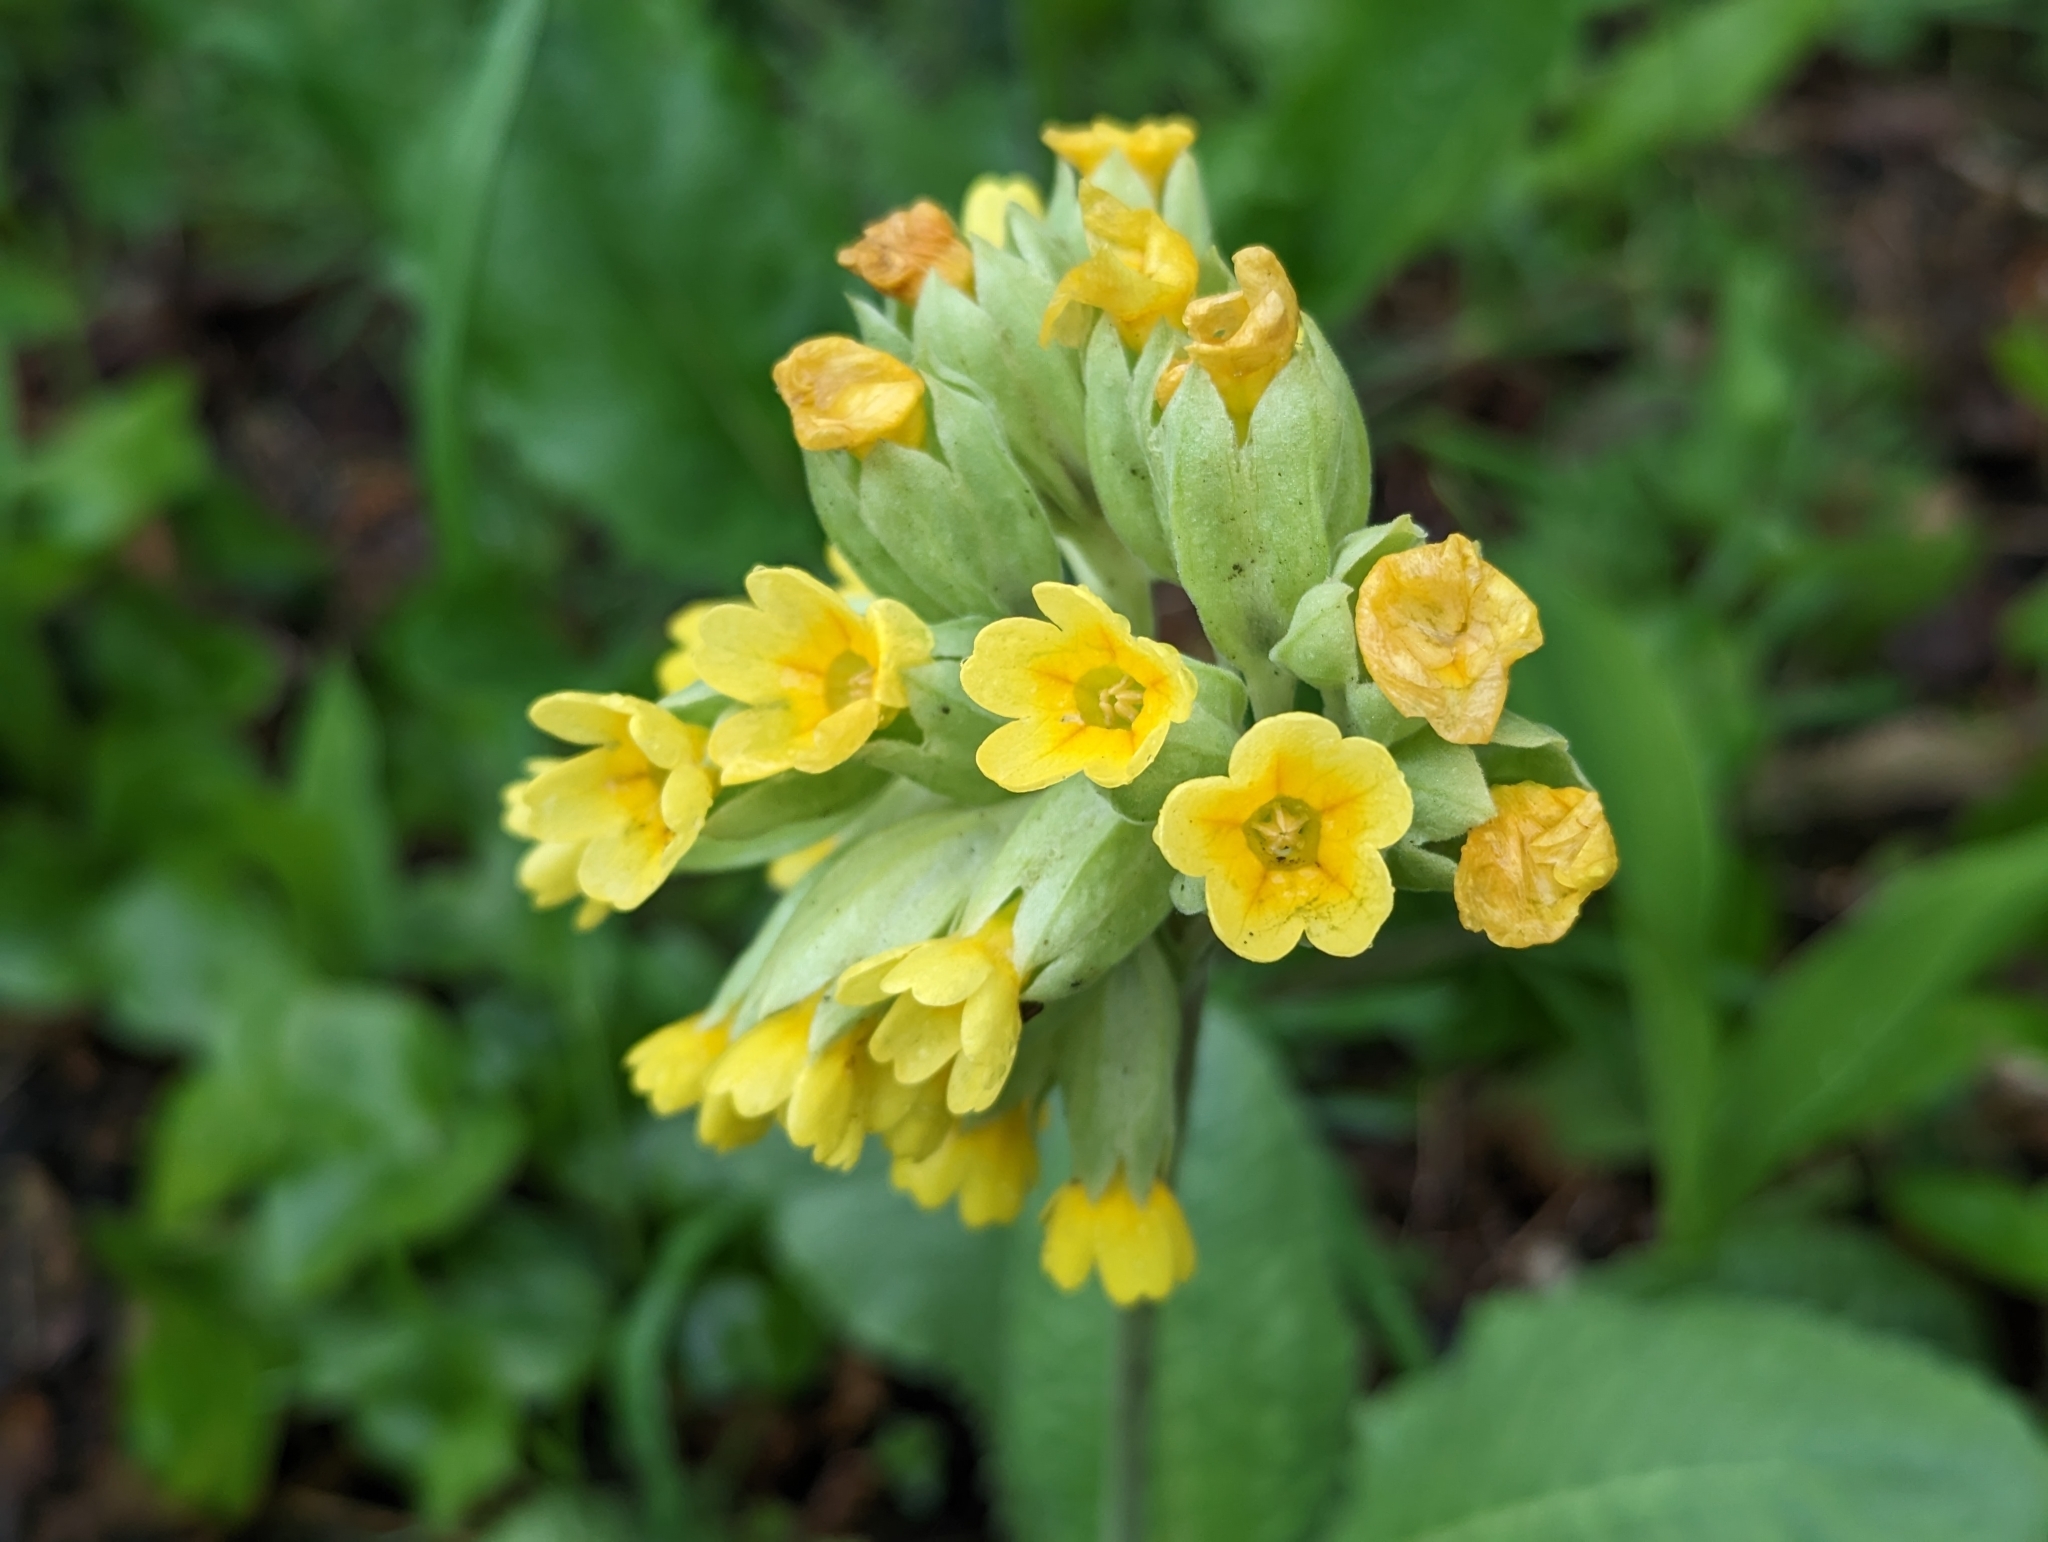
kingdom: Plantae
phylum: Tracheophyta
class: Magnoliopsida
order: Ericales
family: Primulaceae
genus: Primula
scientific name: Primula veris
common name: Cowslip
